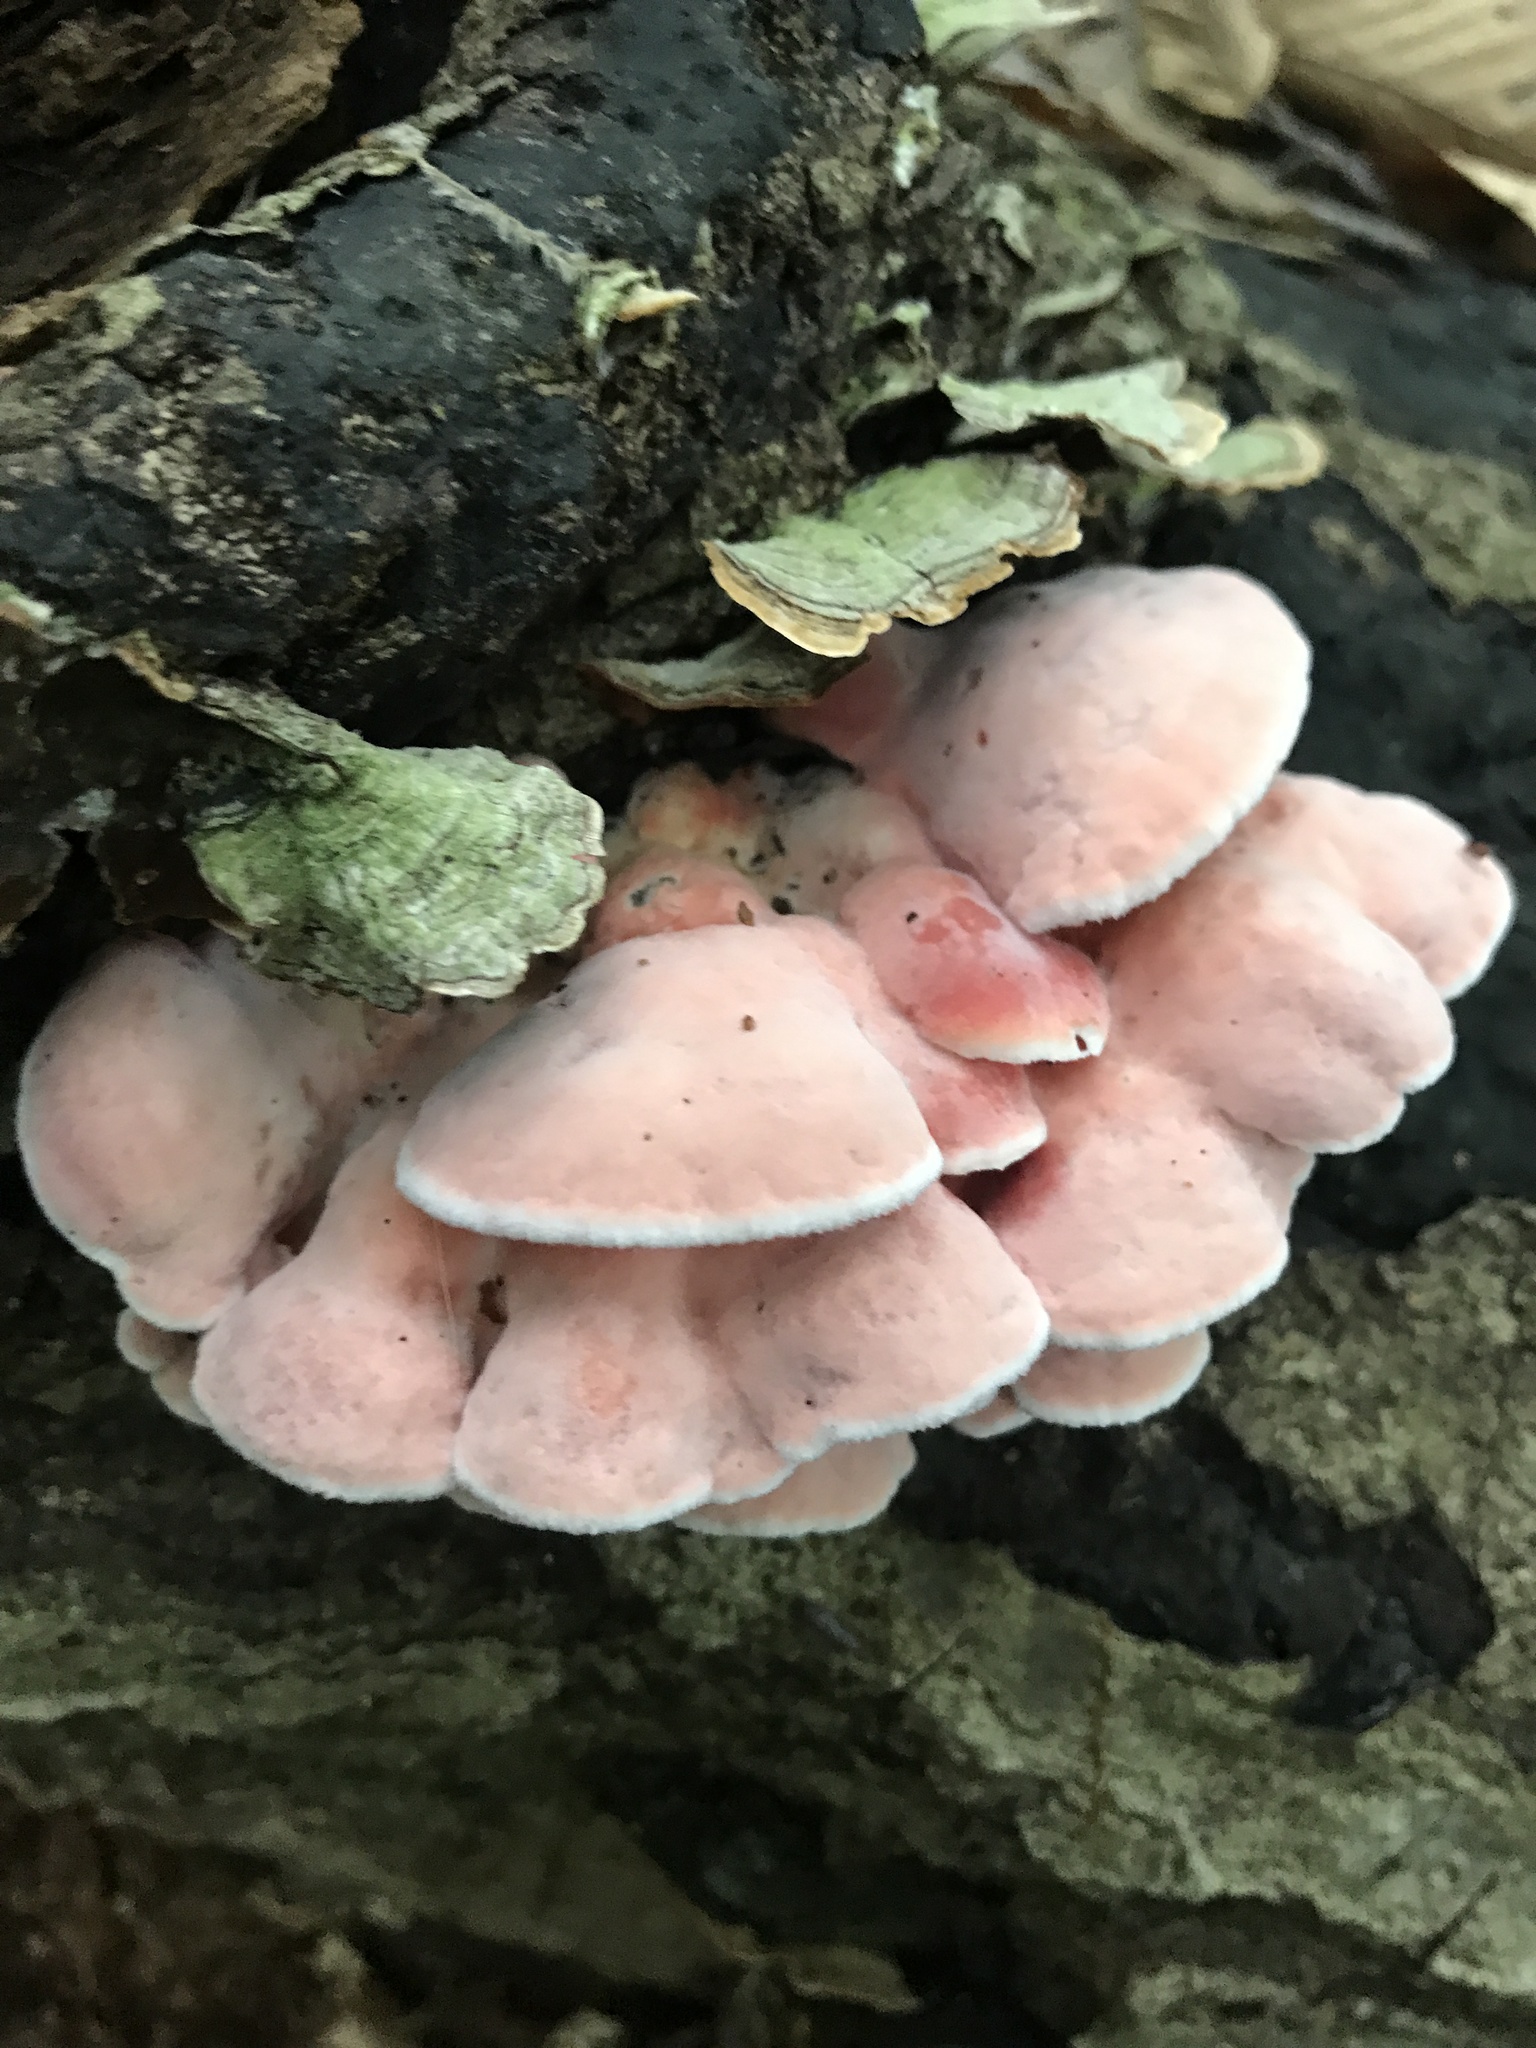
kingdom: Fungi
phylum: Basidiomycota
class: Agaricomycetes
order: Polyporales
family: Irpicaceae
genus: Byssomerulius
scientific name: Byssomerulius incarnatus
